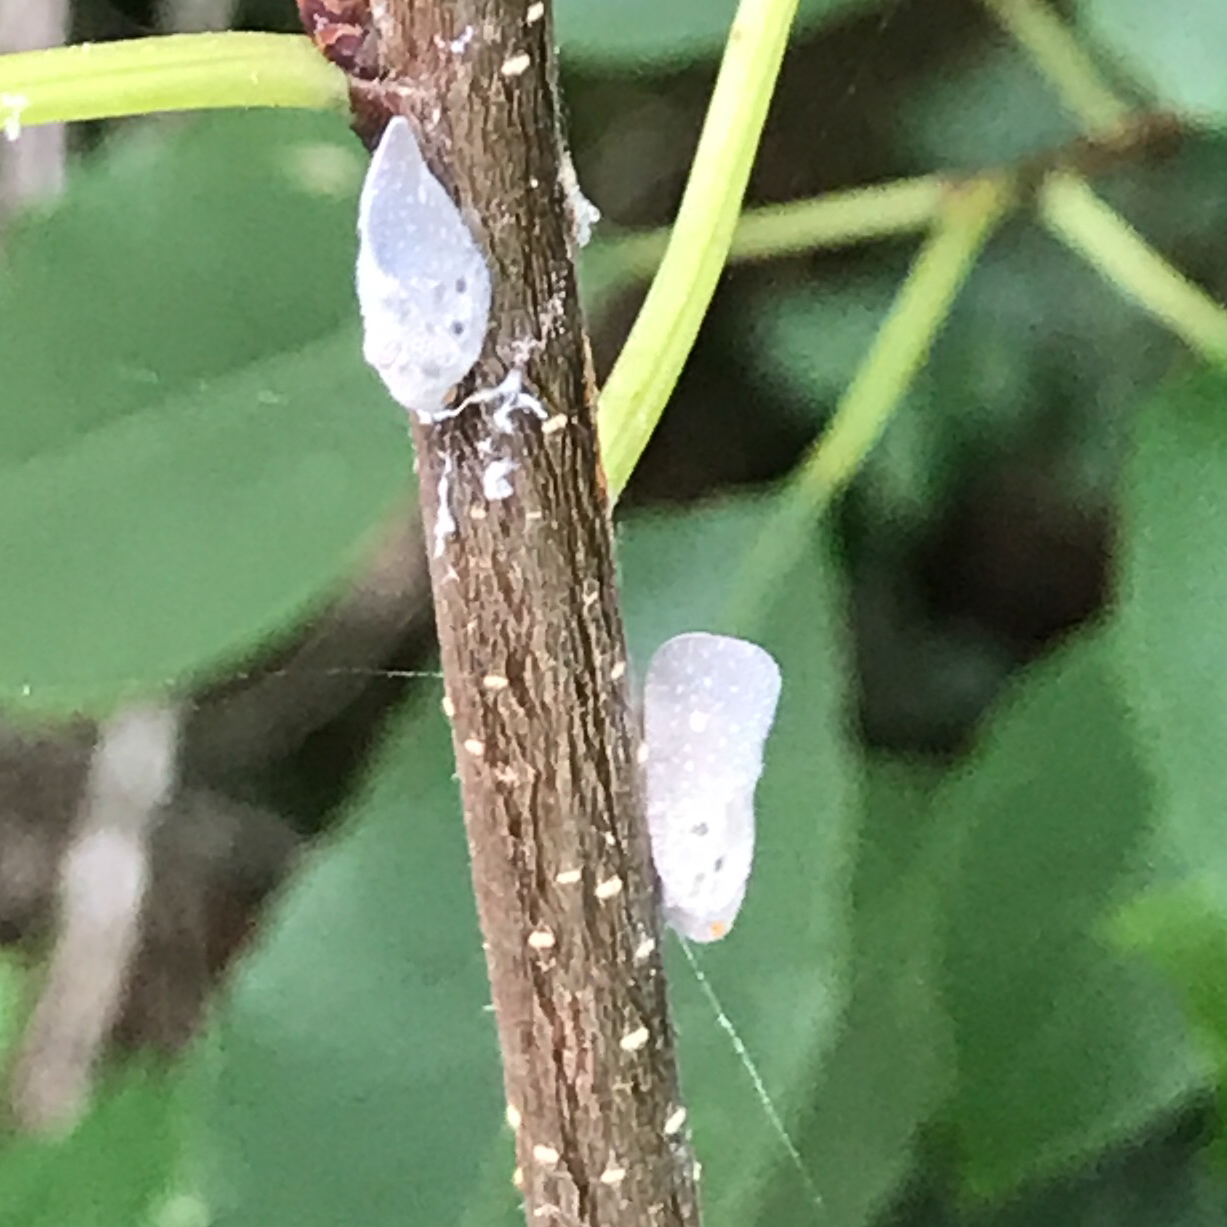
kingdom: Animalia
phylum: Arthropoda
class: Insecta
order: Hemiptera
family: Flatidae
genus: Metcalfa
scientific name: Metcalfa pruinosa
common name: Citrus flatid planthopper
